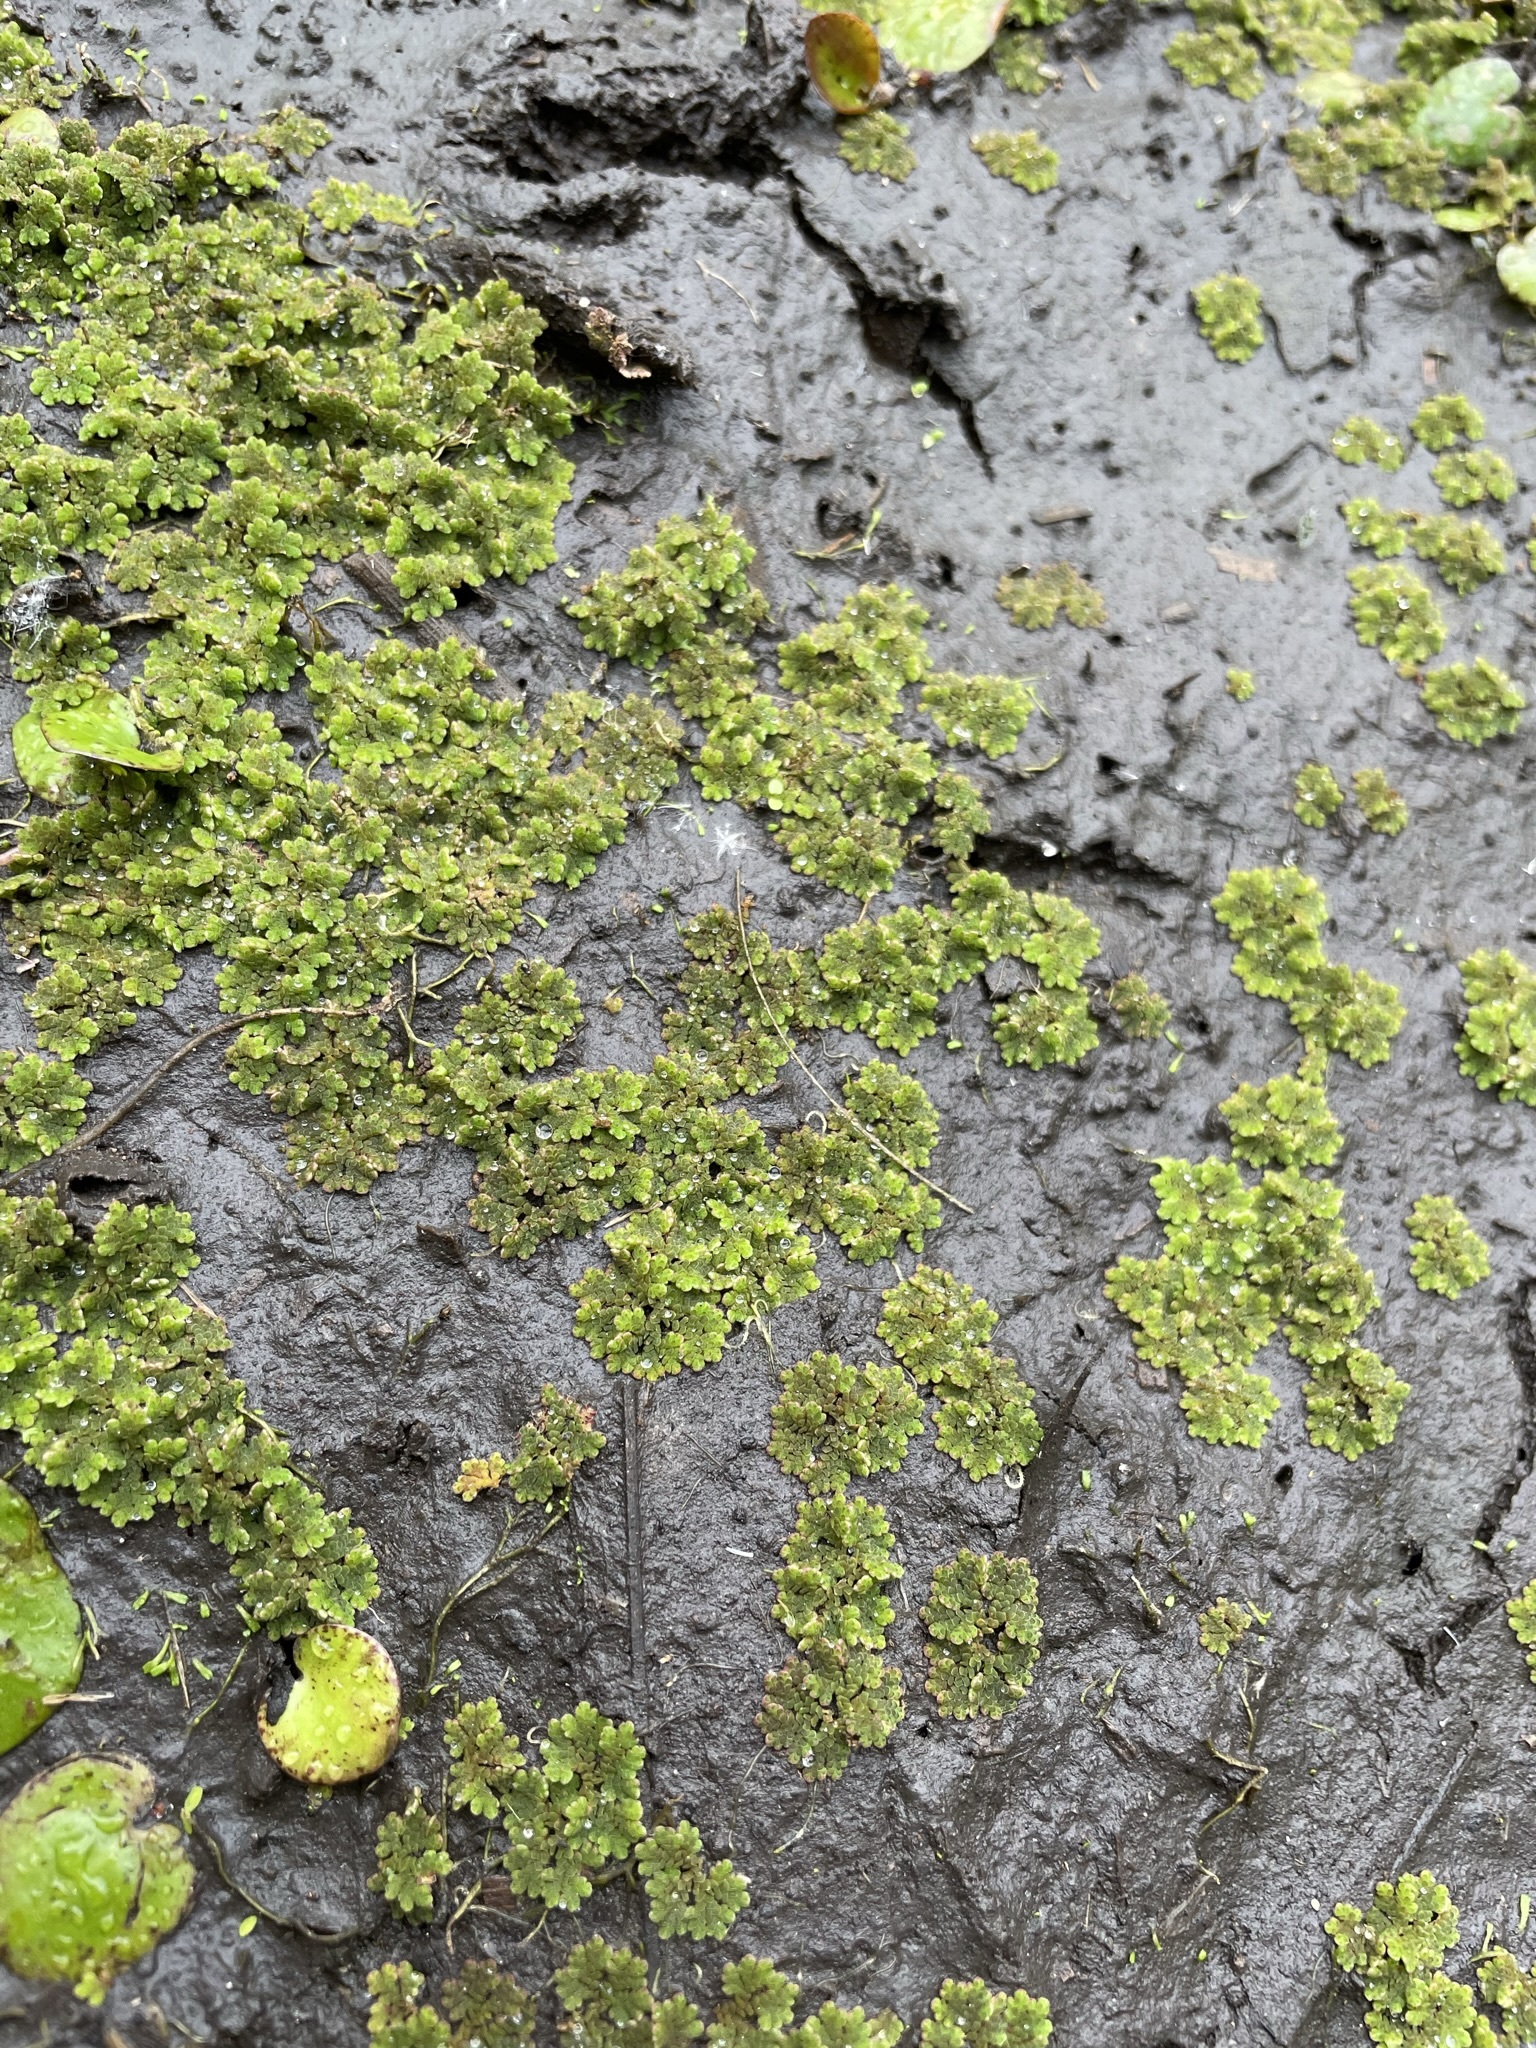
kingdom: Plantae
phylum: Tracheophyta
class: Polypodiopsida
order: Salviniales
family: Salviniaceae
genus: Azolla
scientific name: Azolla caroliniana
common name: Carolina mosquitofern
